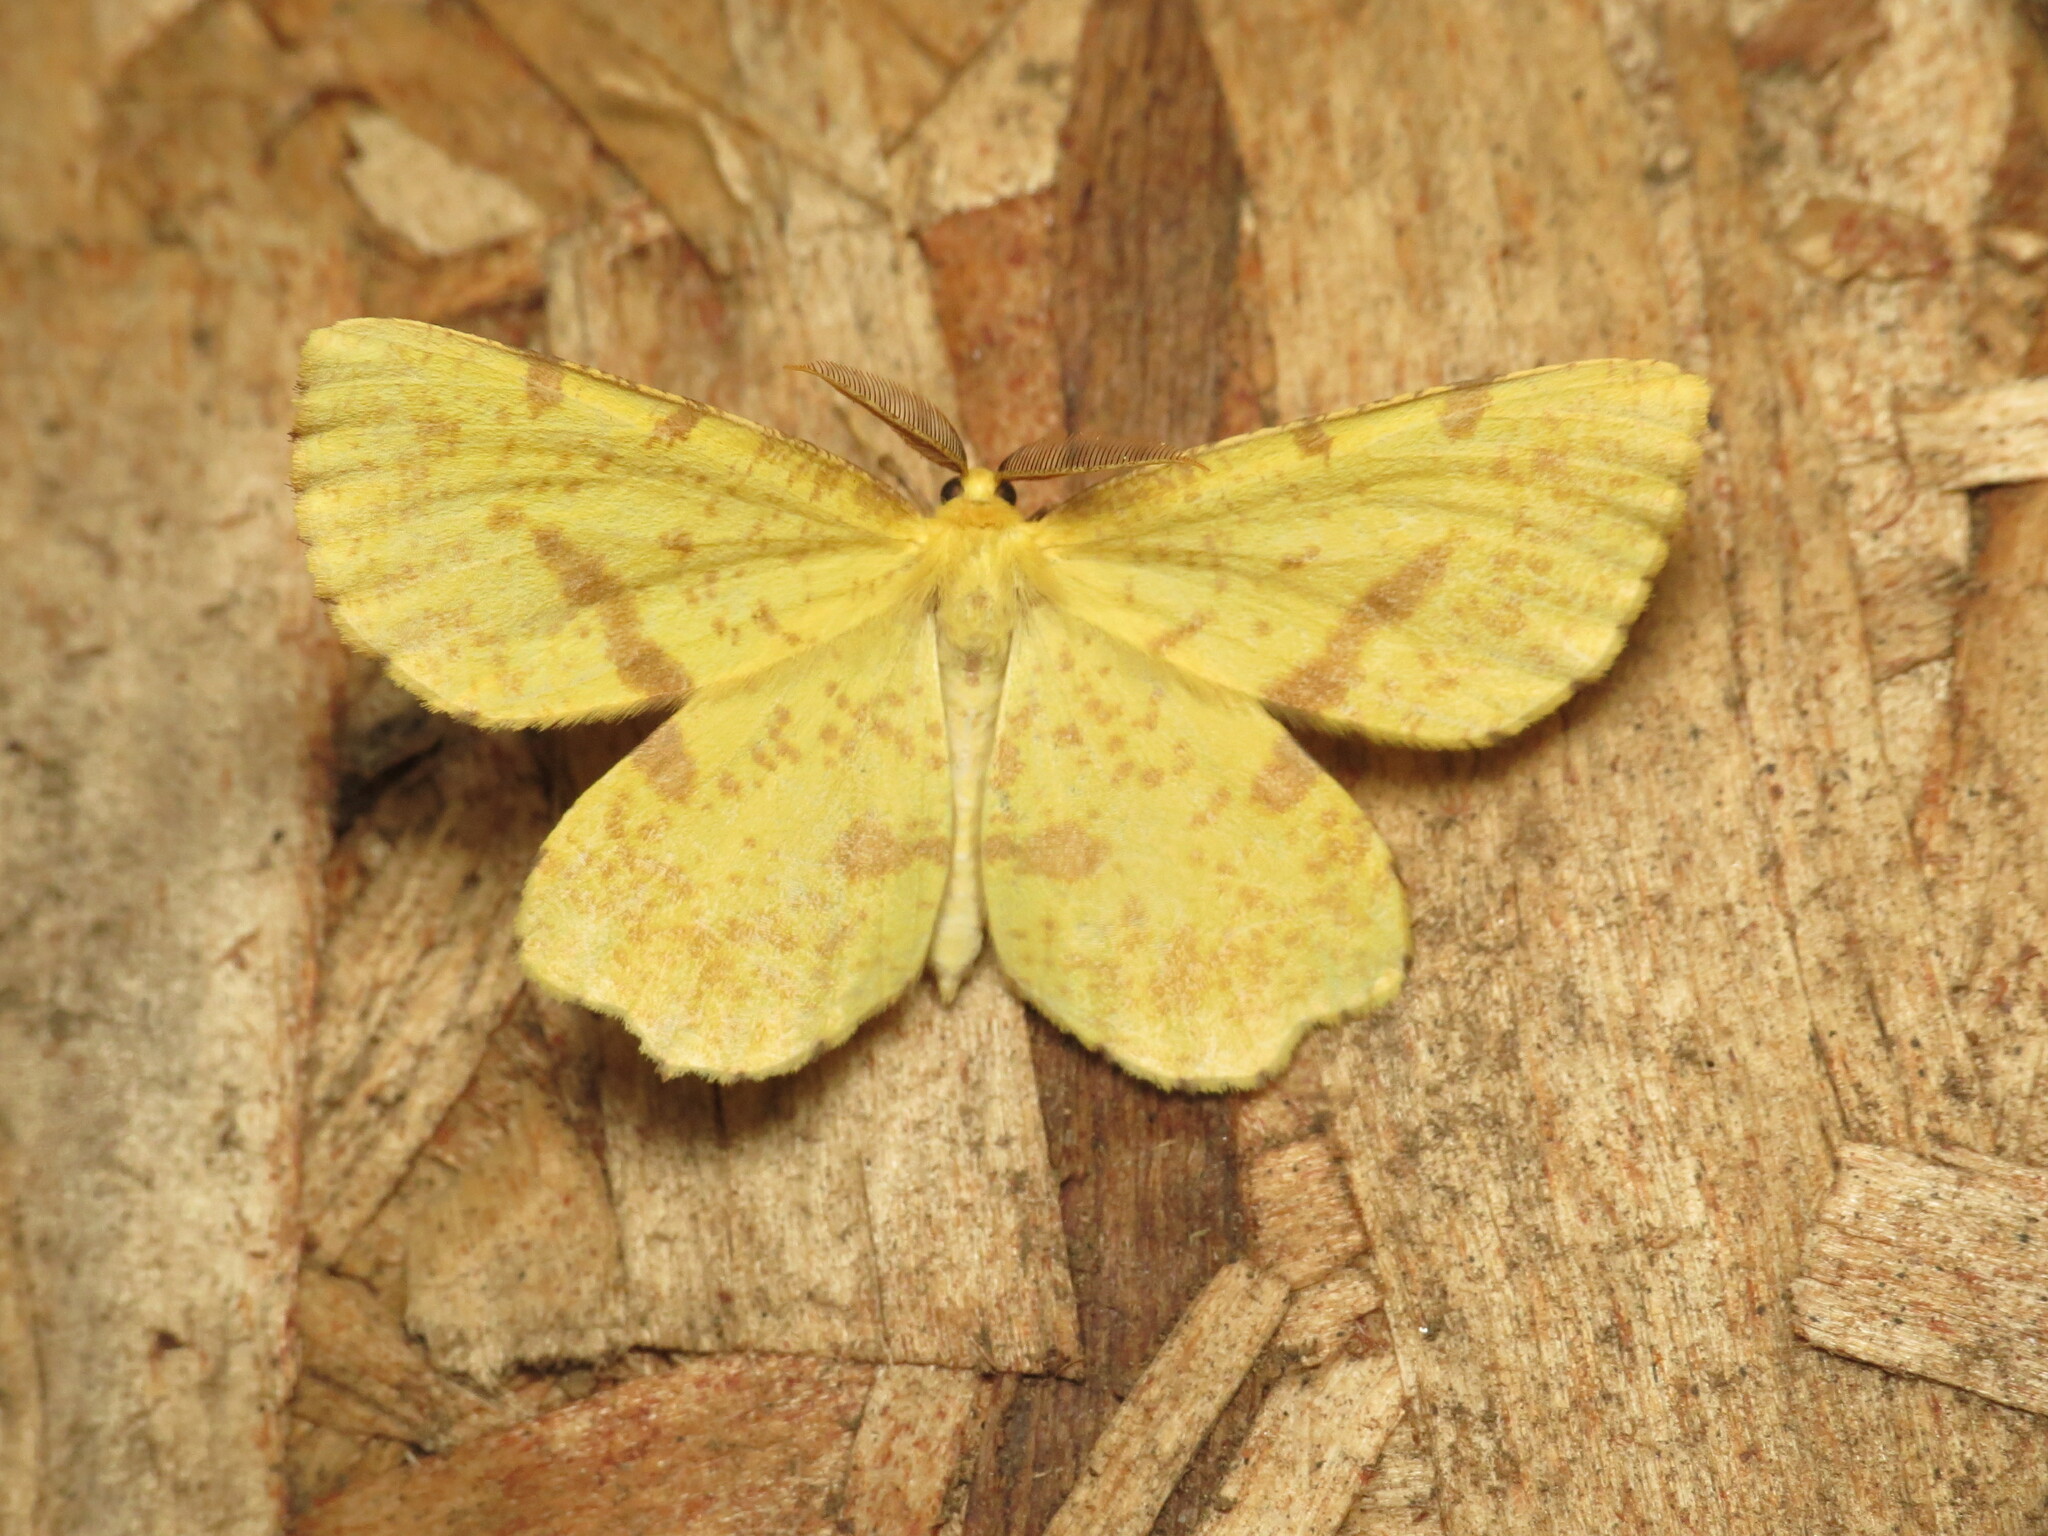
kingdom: Animalia
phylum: Arthropoda
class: Insecta
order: Lepidoptera
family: Geometridae
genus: Xanthotype
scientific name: Xanthotype
